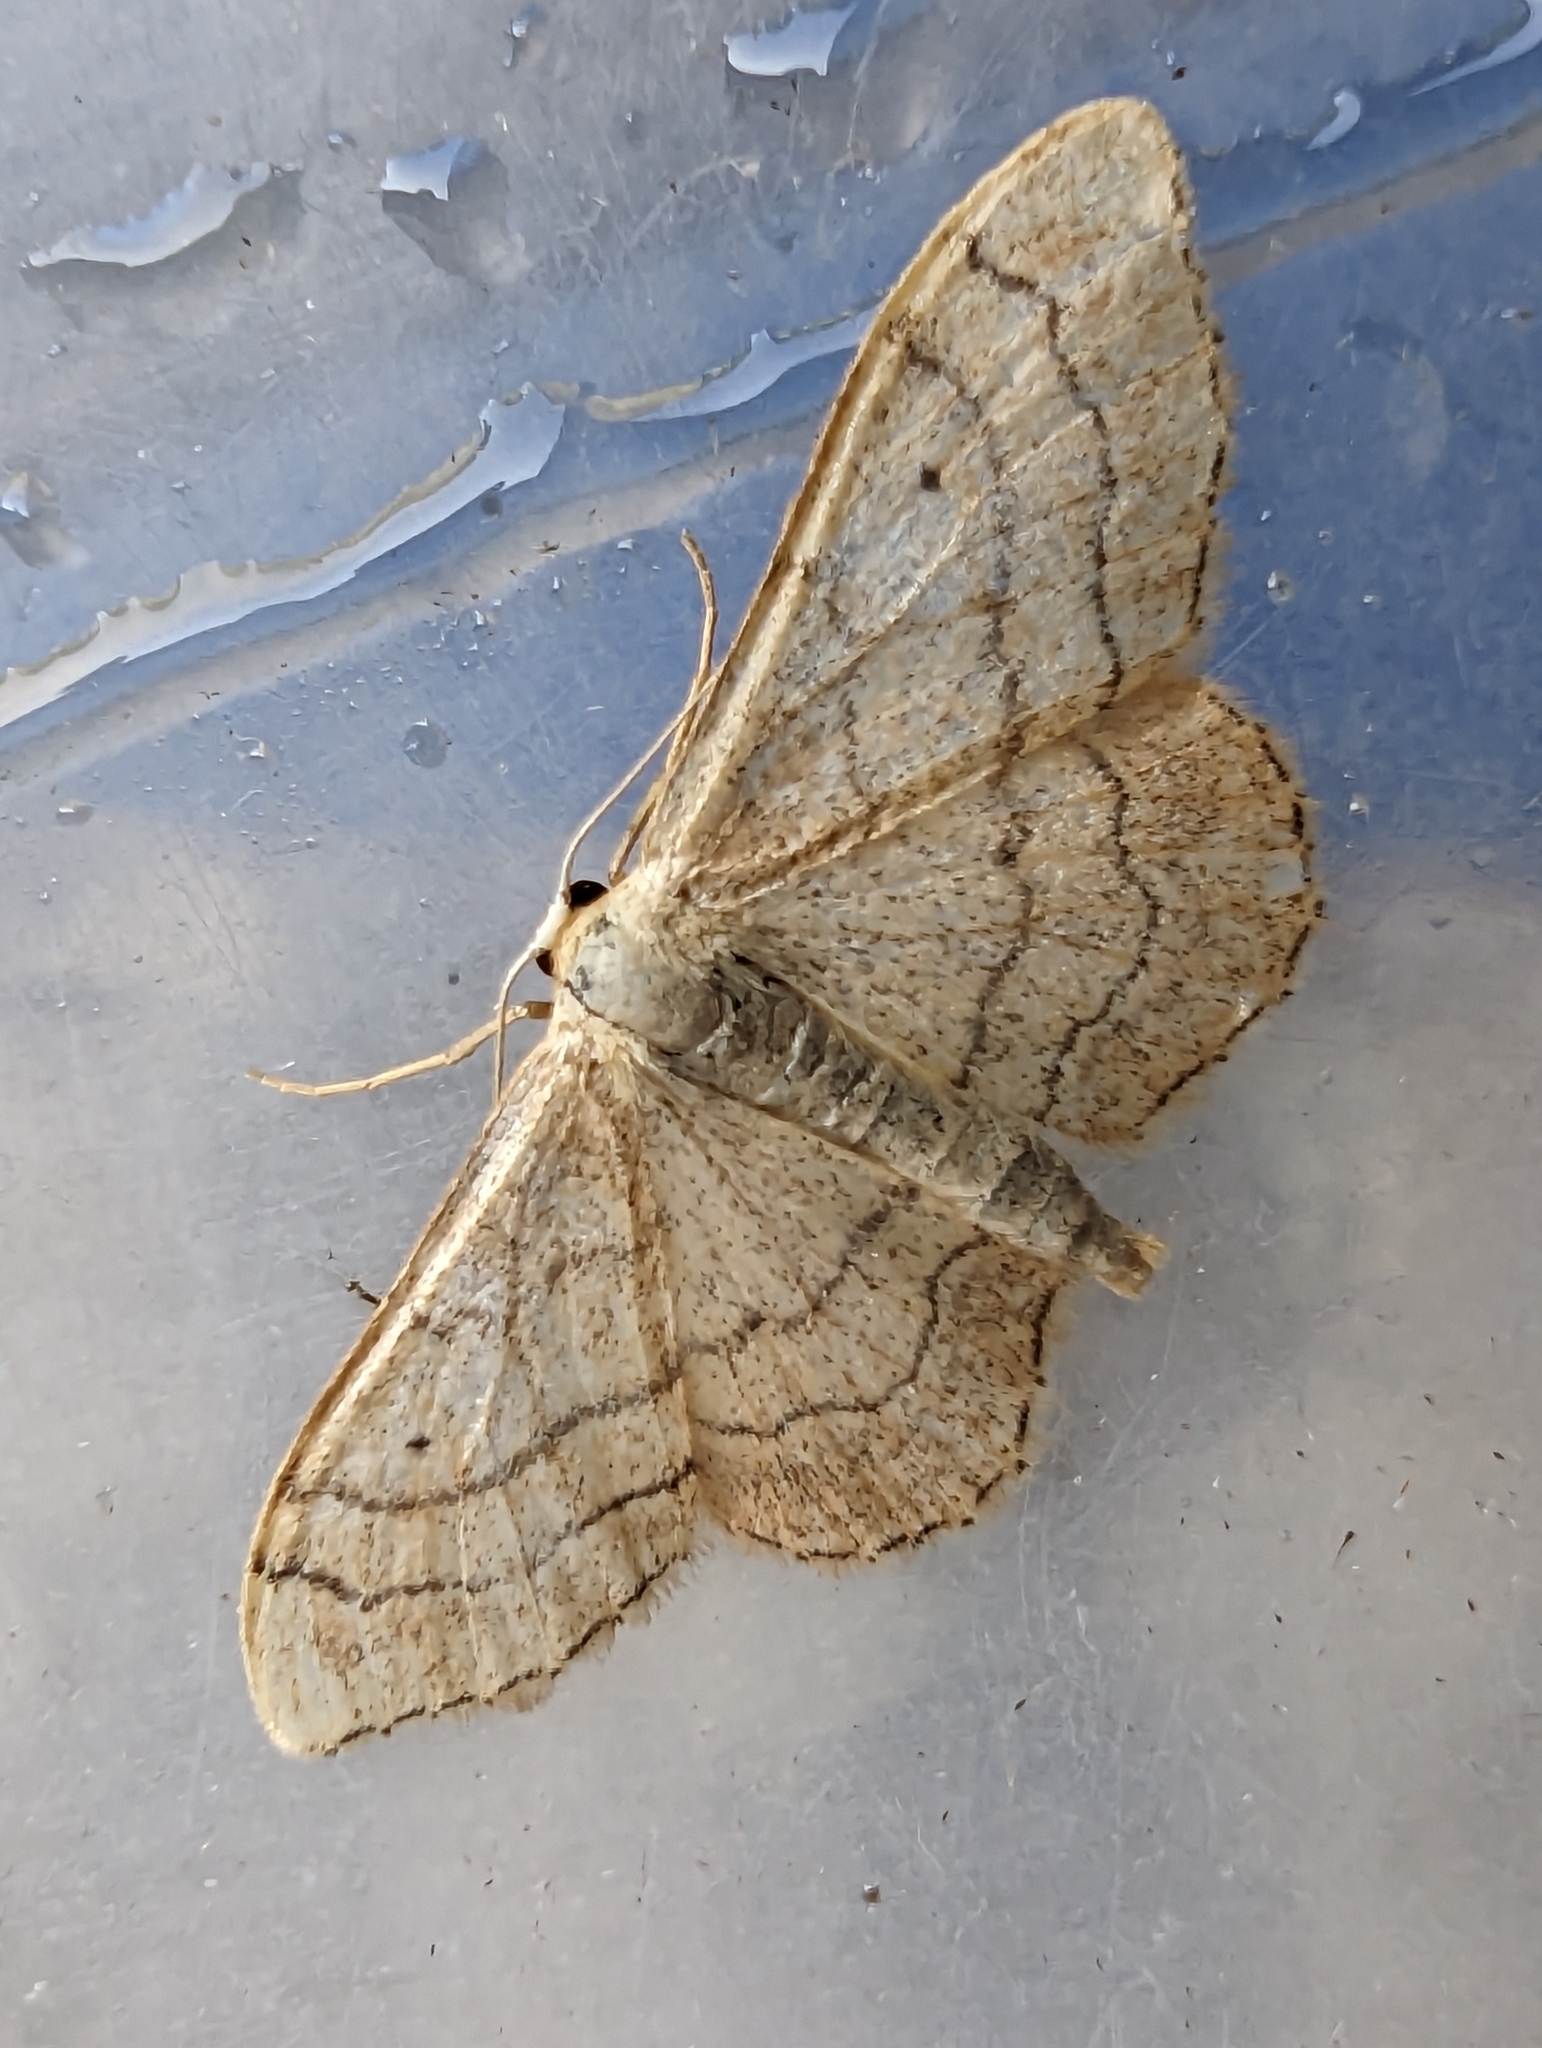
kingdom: Animalia
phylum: Arthropoda
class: Insecta
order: Lepidoptera
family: Geometridae
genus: Idaea
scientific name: Idaea aversata
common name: Riband wave
